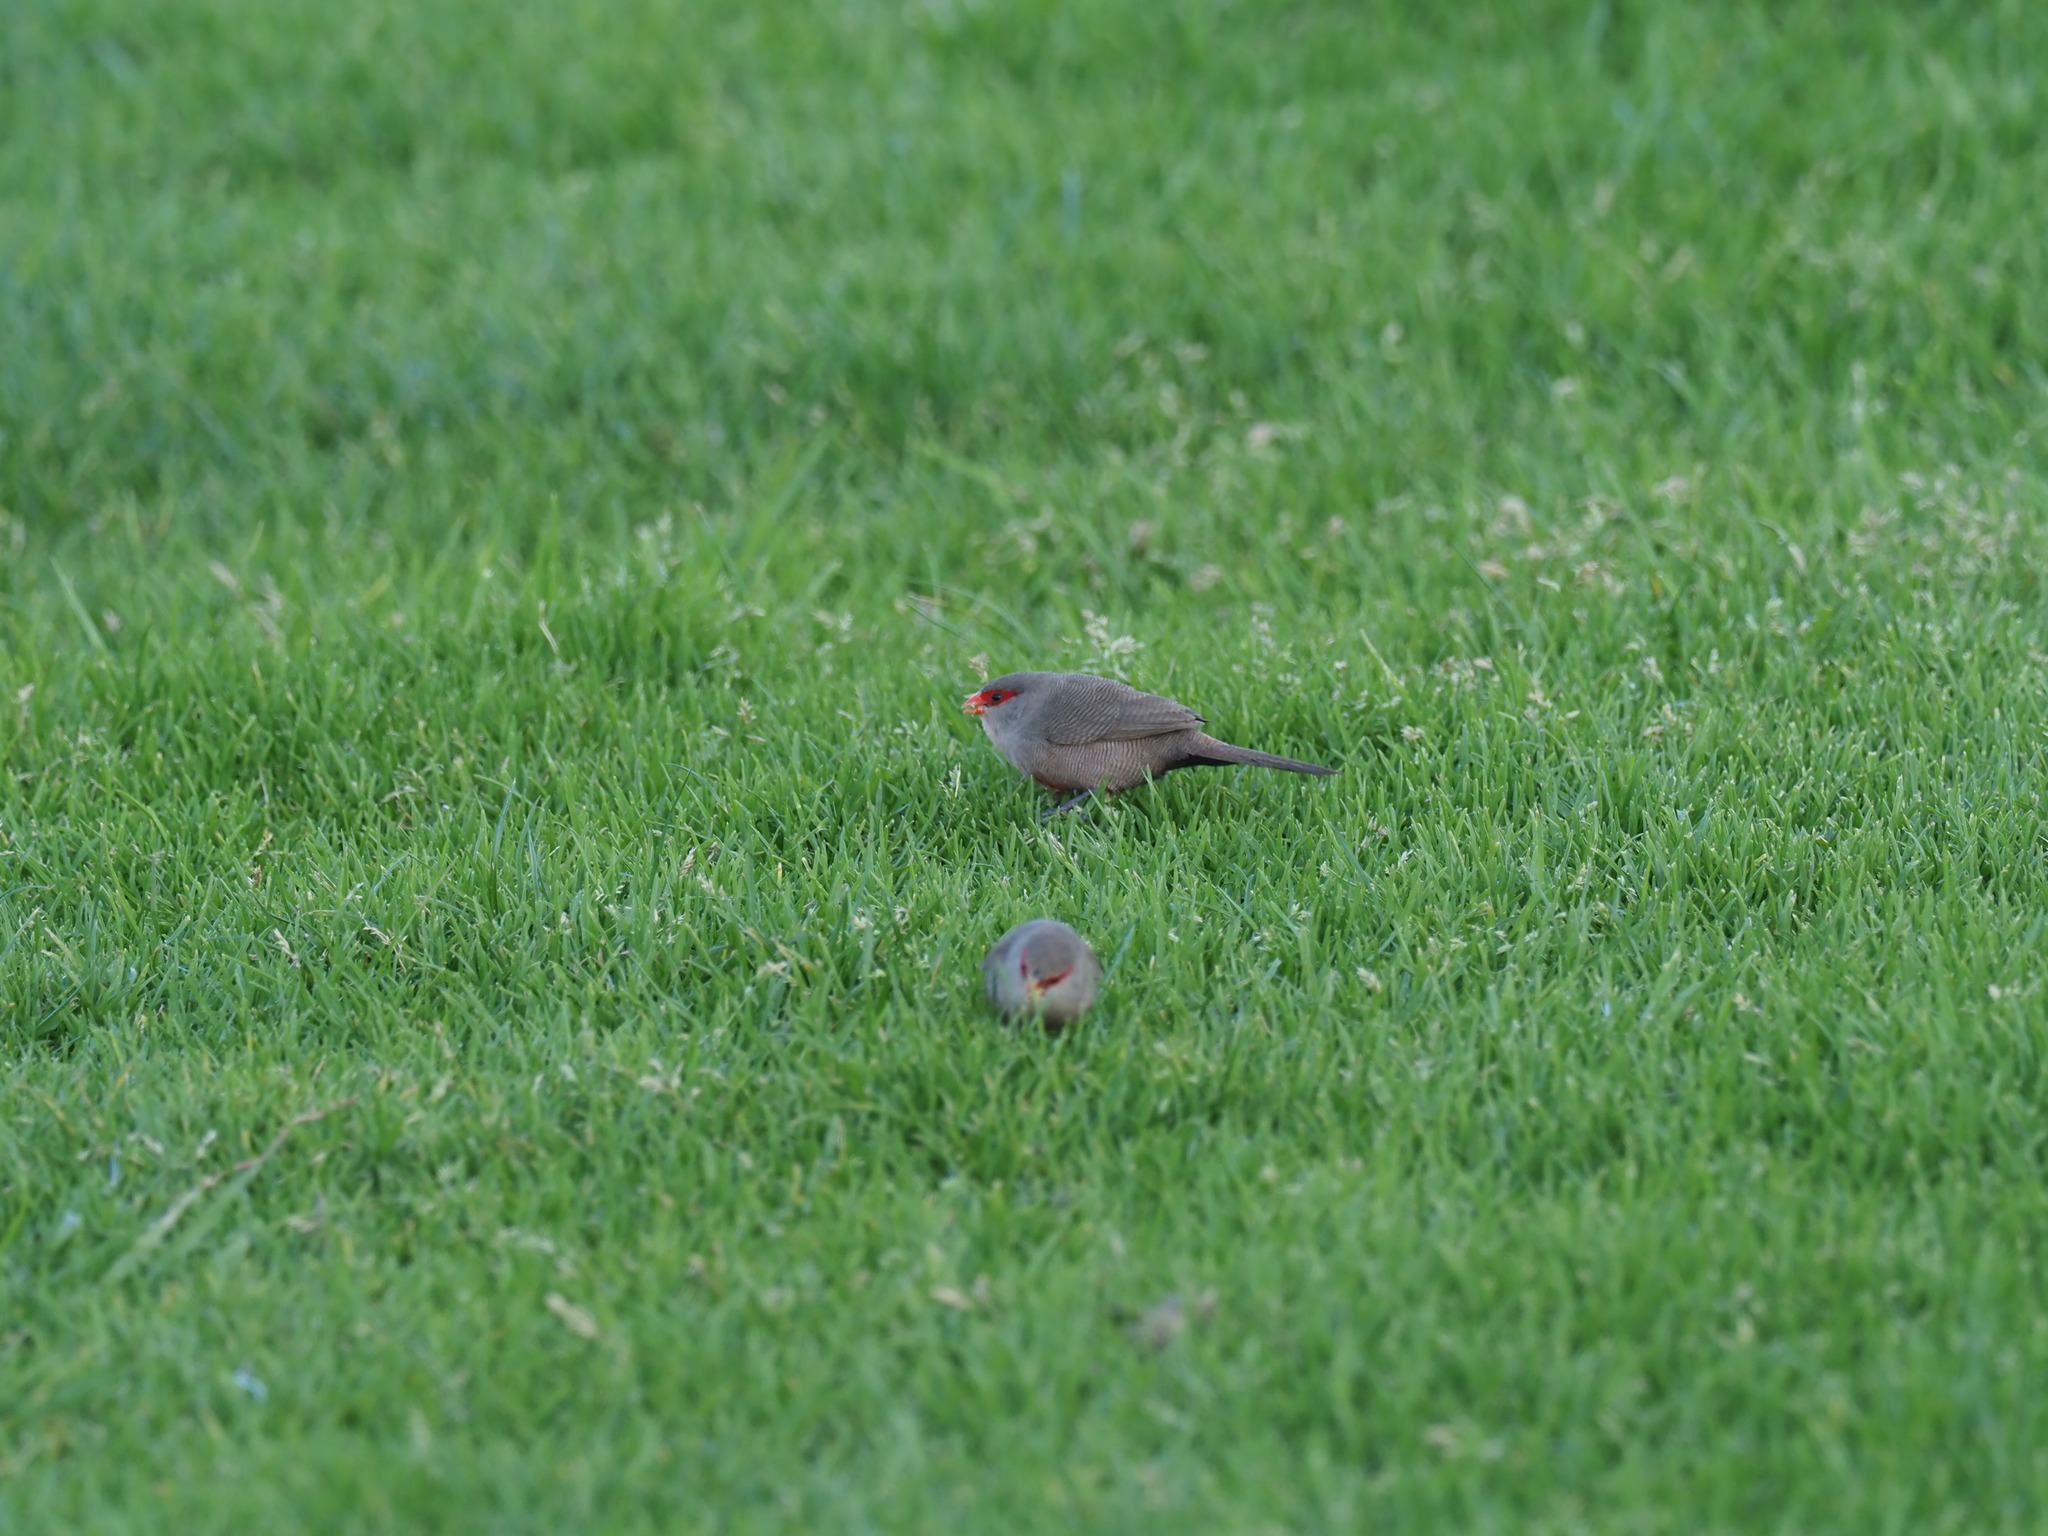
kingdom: Animalia
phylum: Chordata
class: Aves
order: Passeriformes
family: Estrildidae
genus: Estrilda
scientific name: Estrilda astrild
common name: Common waxbill
